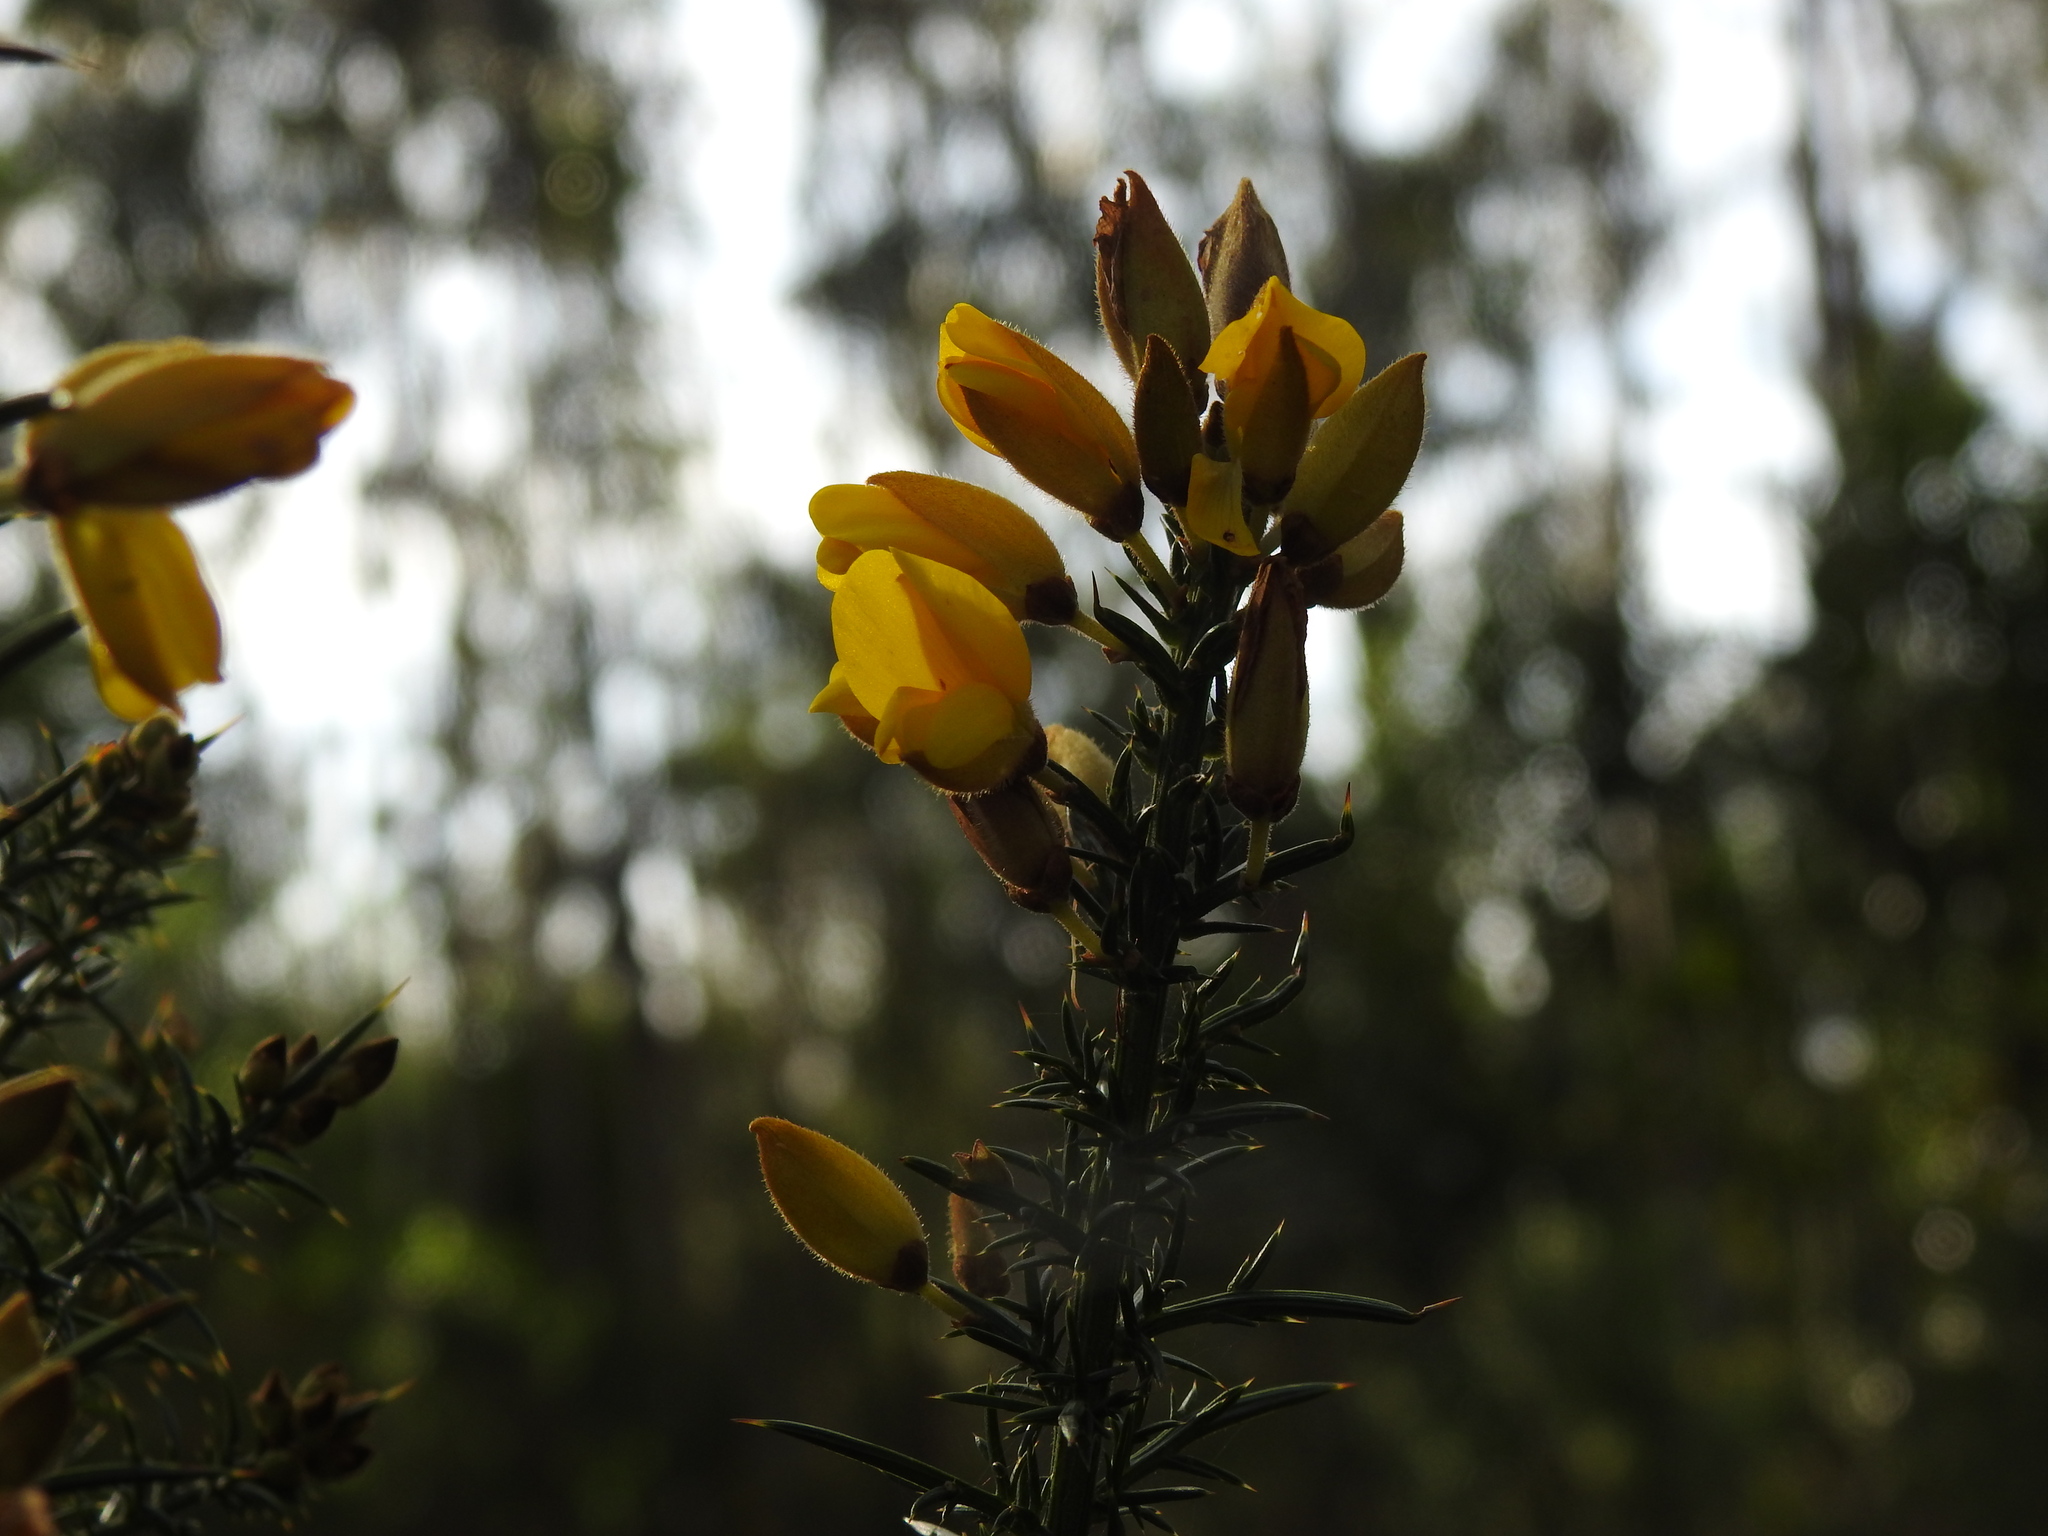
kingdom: Plantae
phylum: Tracheophyta
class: Magnoliopsida
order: Fabales
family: Fabaceae
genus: Ulex
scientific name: Ulex europaeus
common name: Common gorse
